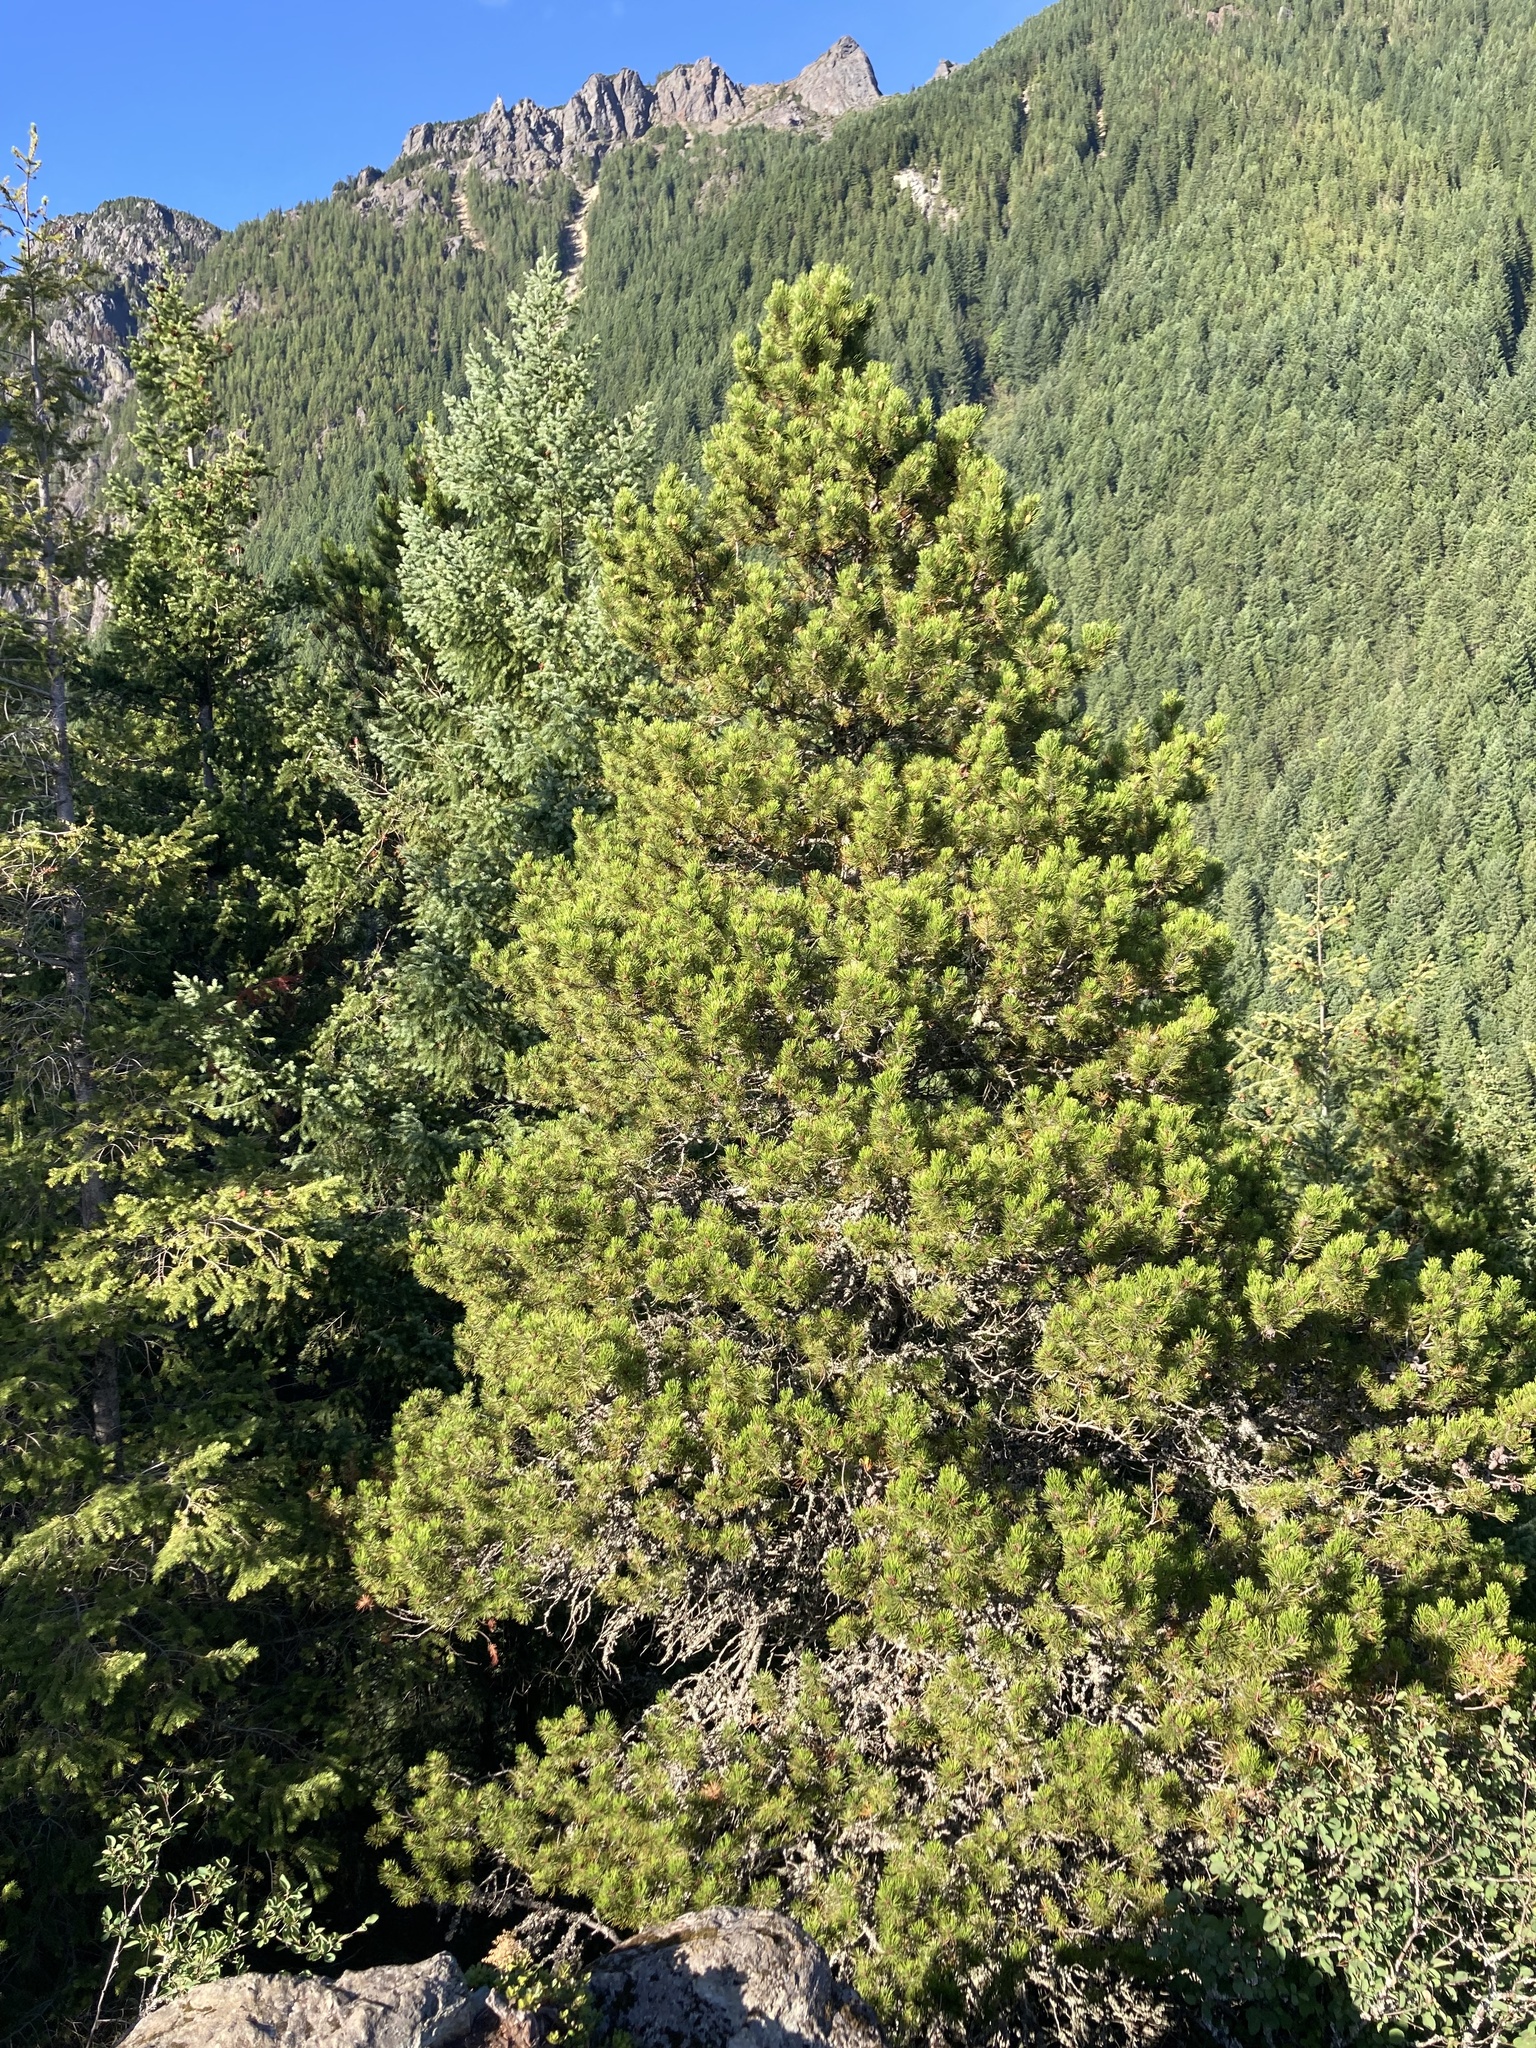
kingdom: Plantae
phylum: Tracheophyta
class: Pinopsida
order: Pinales
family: Pinaceae
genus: Pinus
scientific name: Pinus contorta
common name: Lodgepole pine
